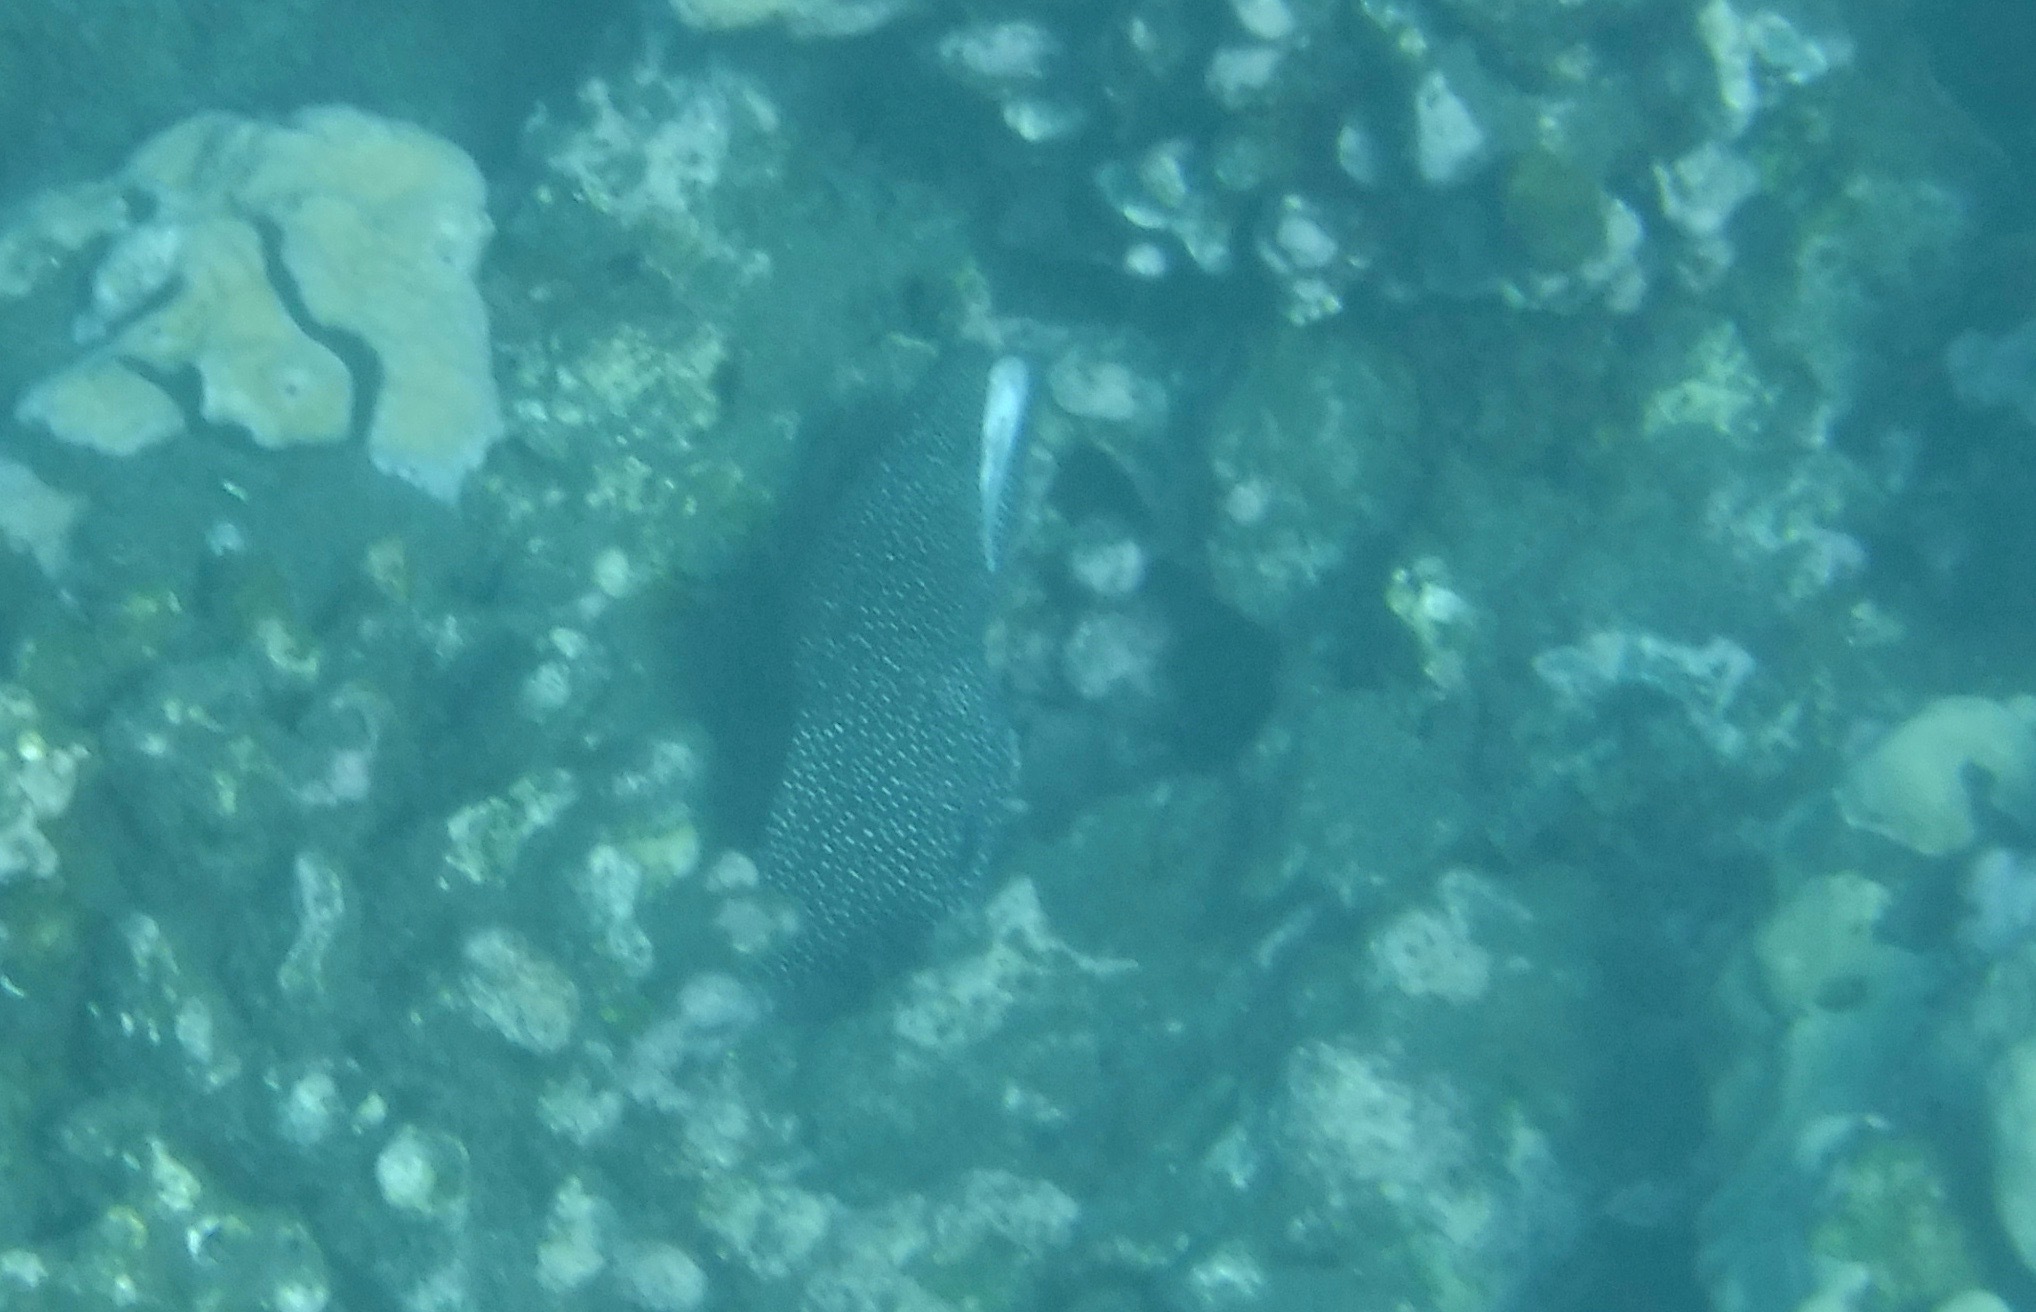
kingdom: Animalia
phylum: Chordata
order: Anguilliformes
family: Muraenidae
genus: Gymnothorax
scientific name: Gymnothorax meleagris
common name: Guineafowl moray
